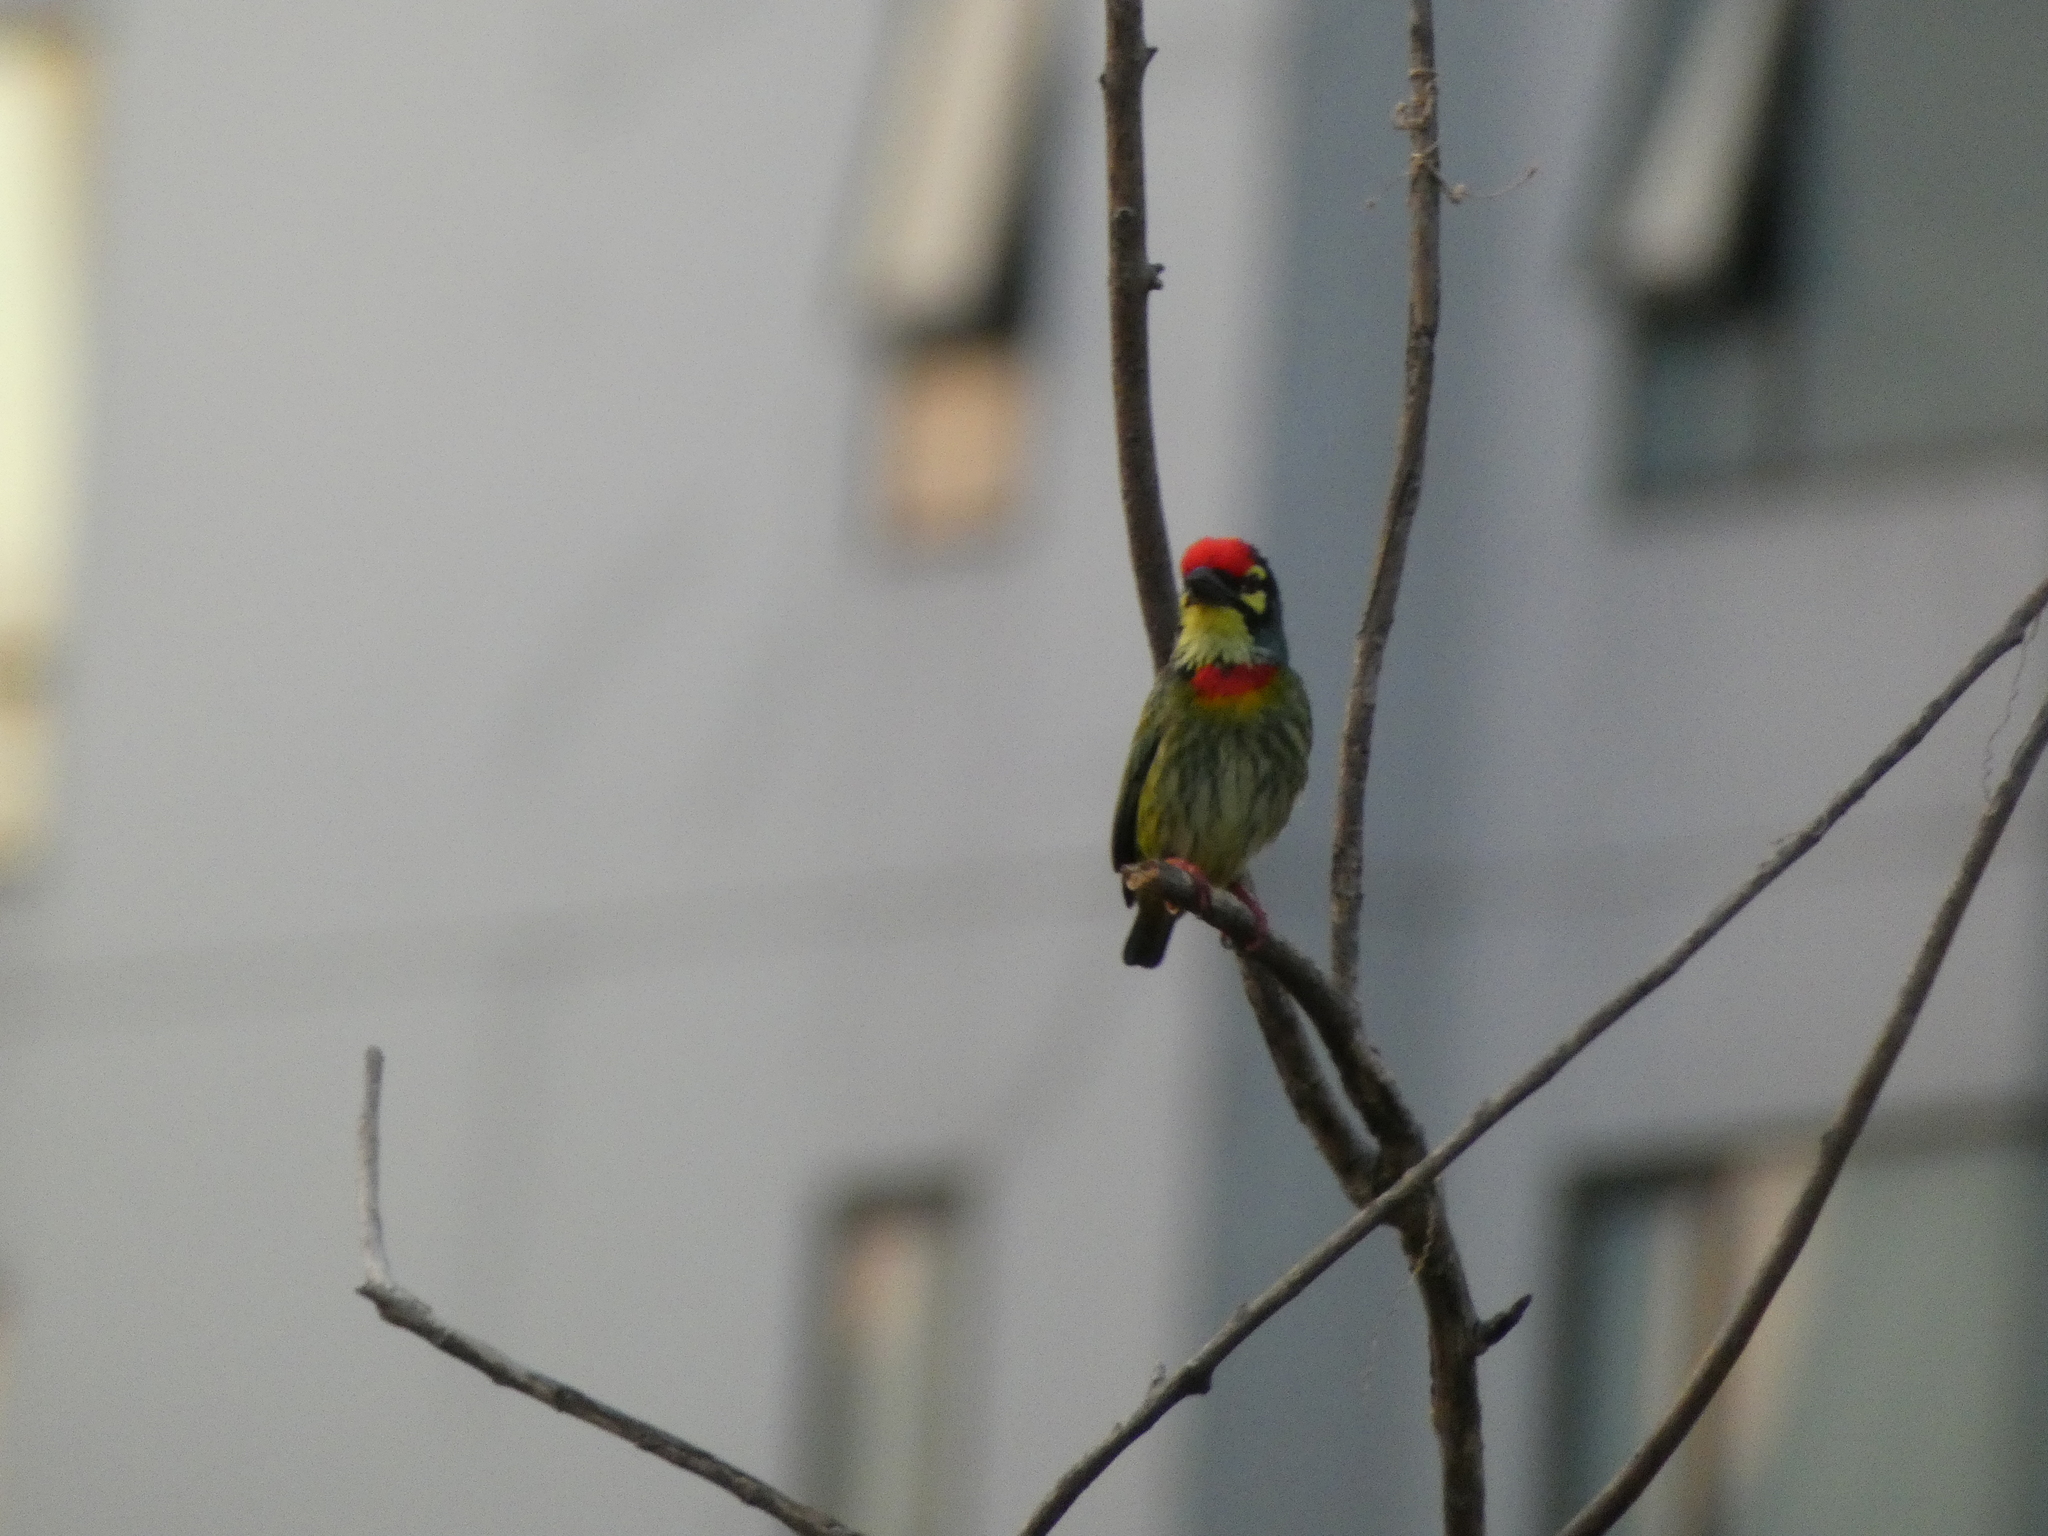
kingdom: Animalia
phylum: Chordata
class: Aves
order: Piciformes
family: Megalaimidae
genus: Psilopogon
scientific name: Psilopogon haemacephalus
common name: Coppersmith barbet
